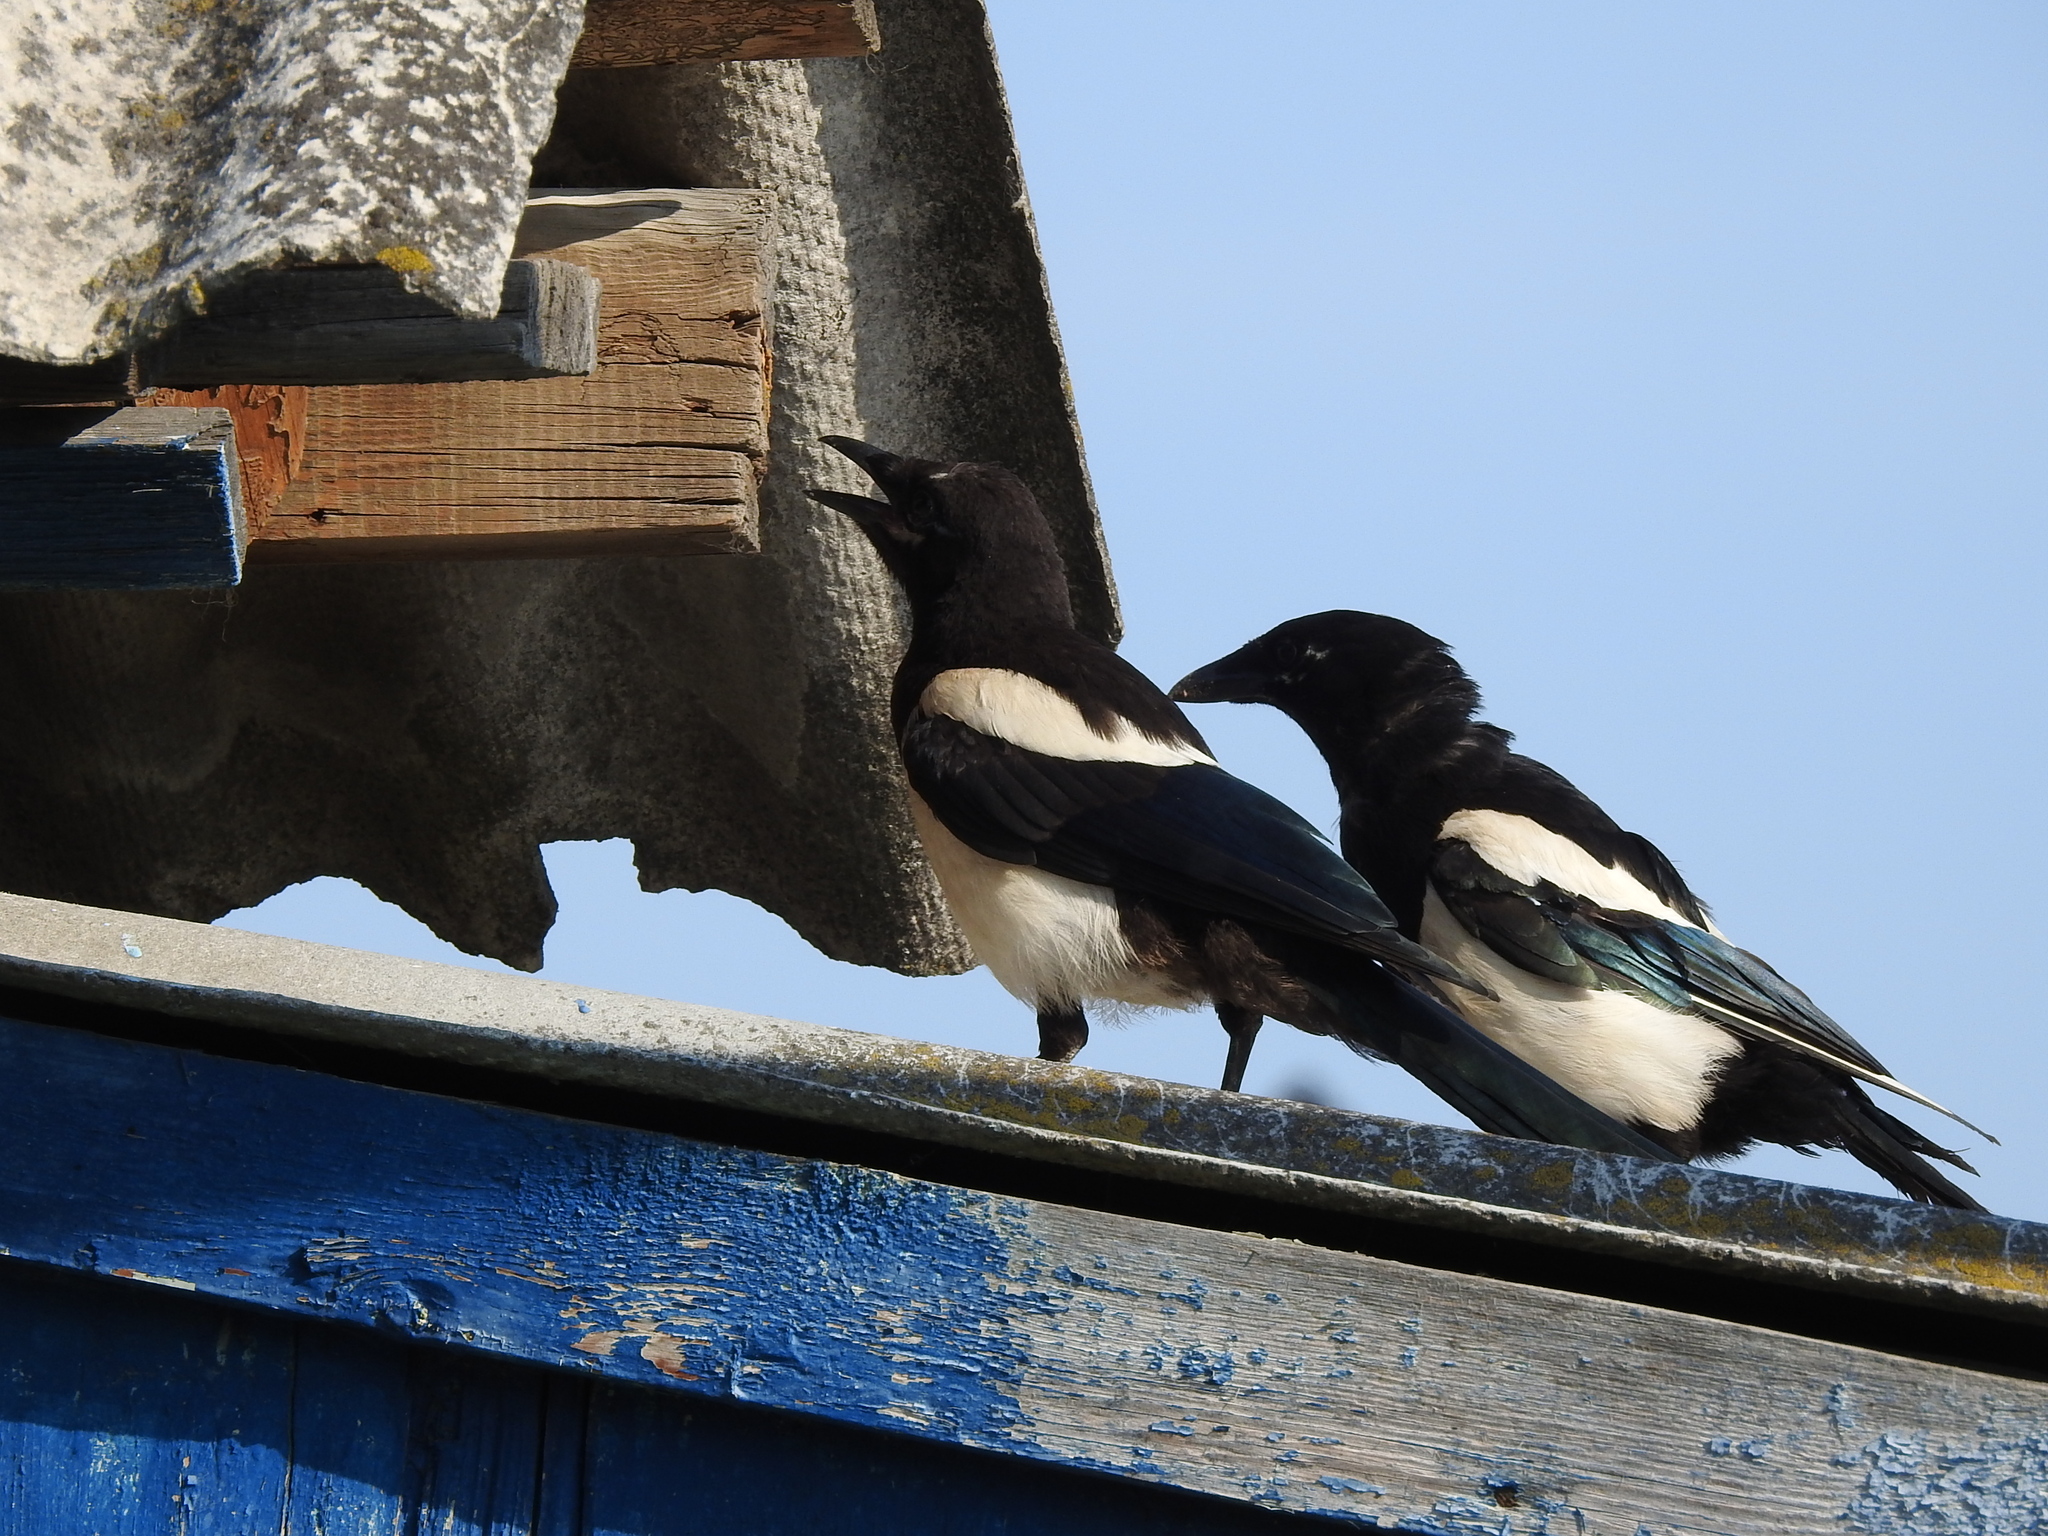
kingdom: Animalia
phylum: Chordata
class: Aves
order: Passeriformes
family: Corvidae
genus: Pica
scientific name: Pica pica
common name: Eurasian magpie
